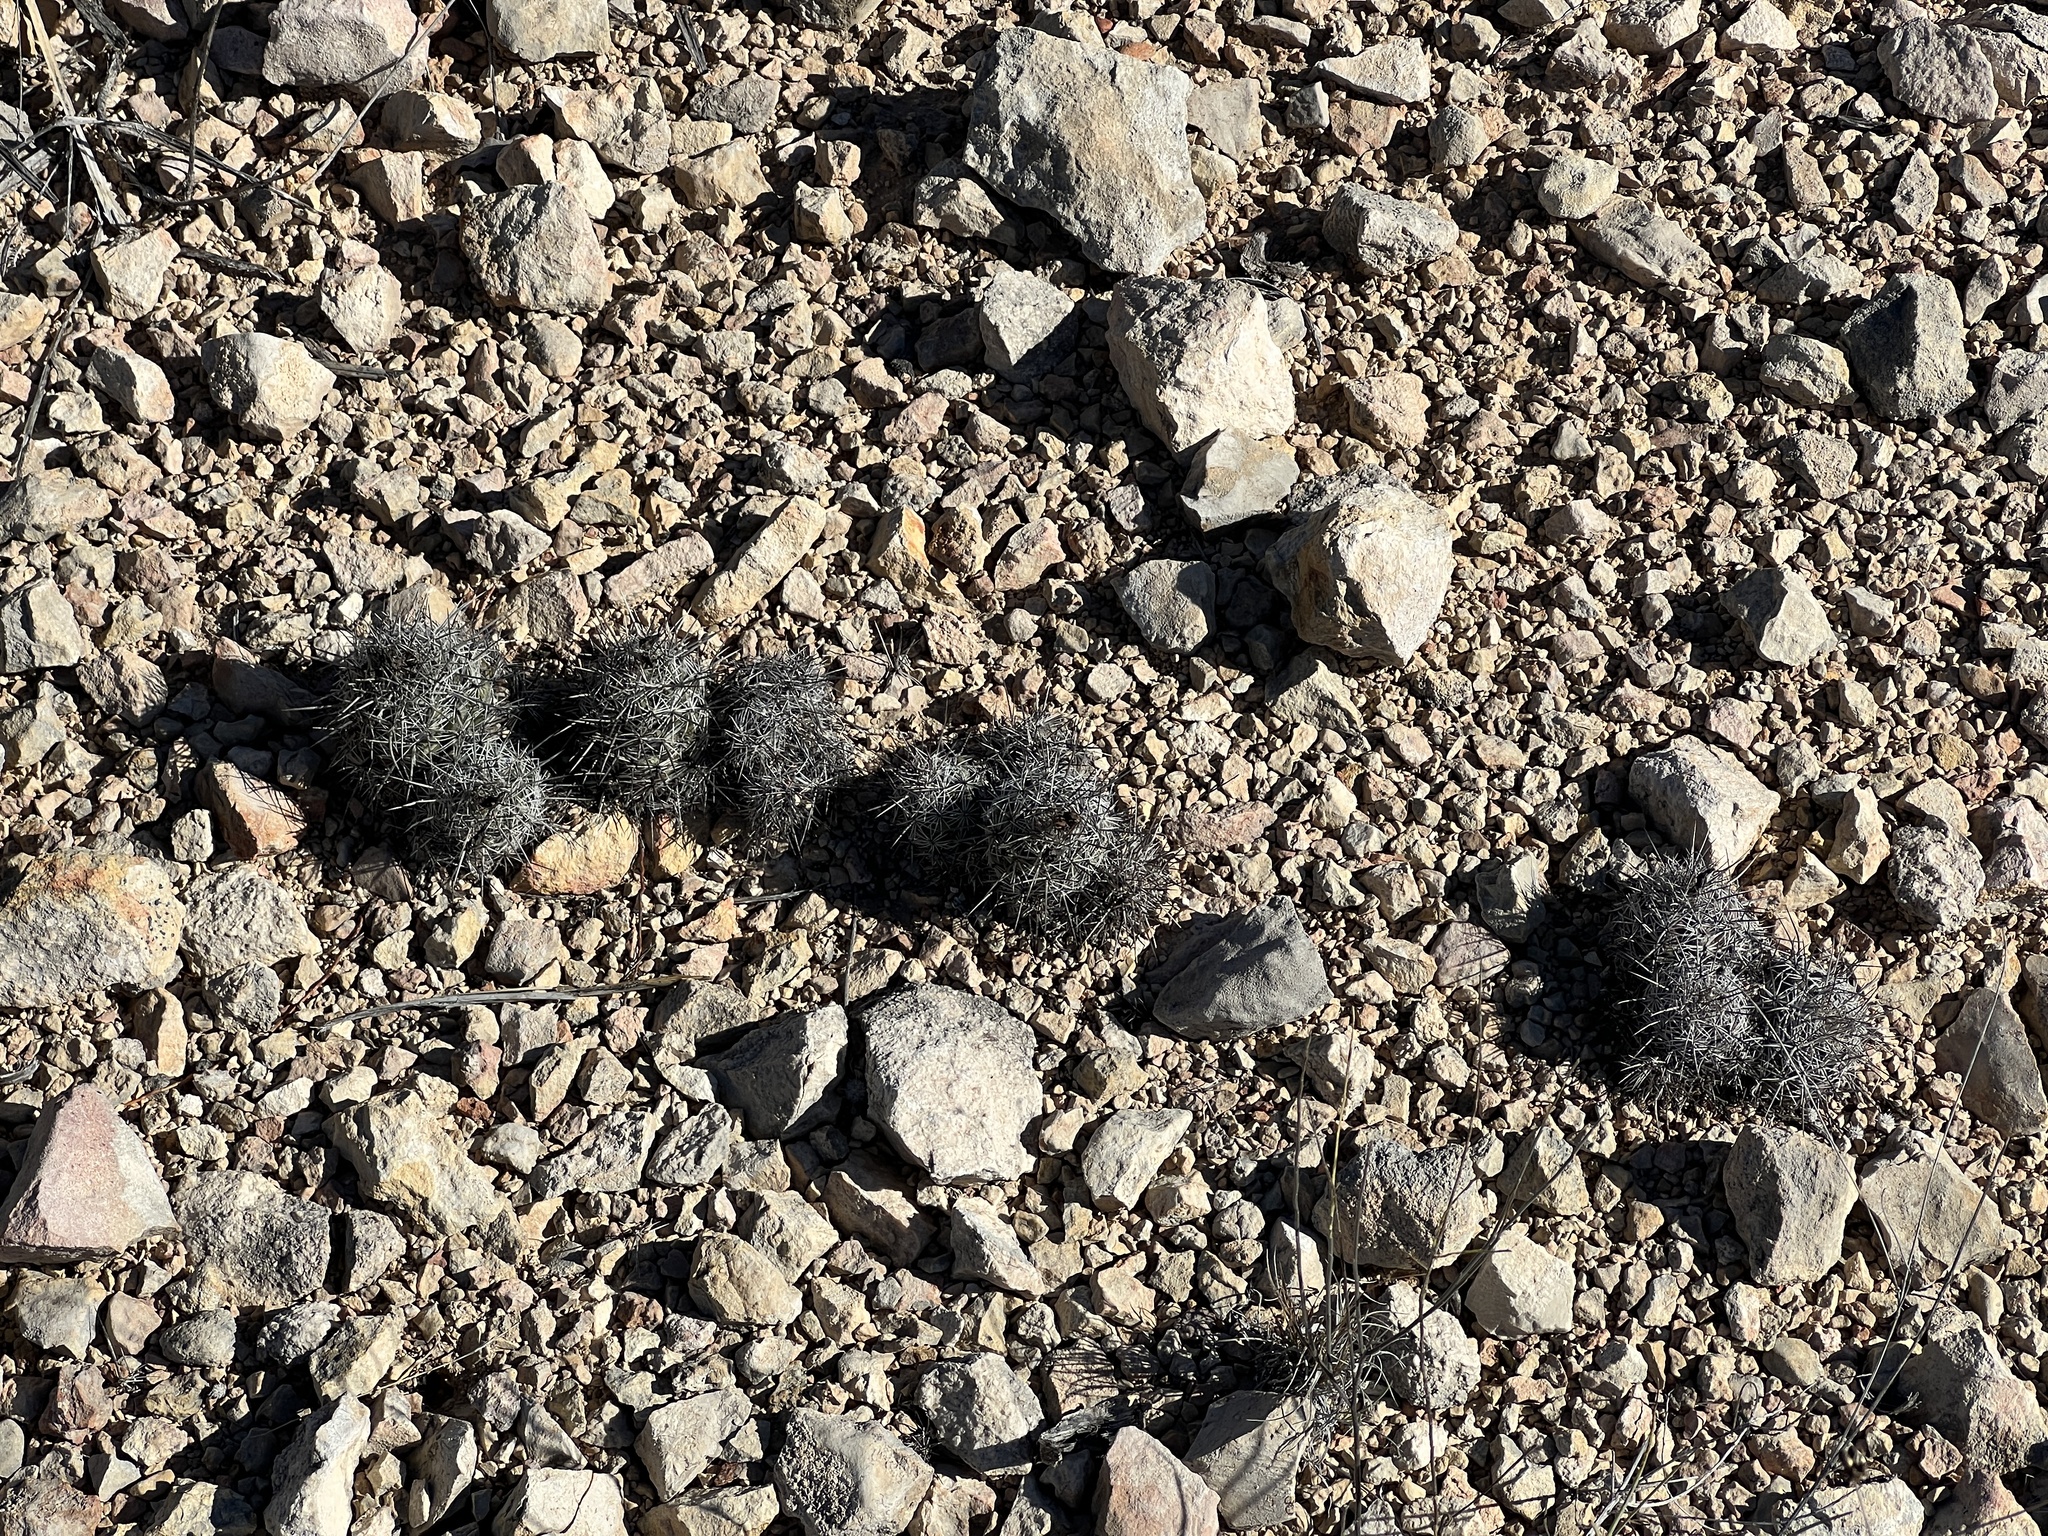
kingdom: Plantae
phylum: Tracheophyta
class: Magnoliopsida
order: Caryophyllales
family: Cactaceae
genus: Cochemiea
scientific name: Cochemiea conoidea
